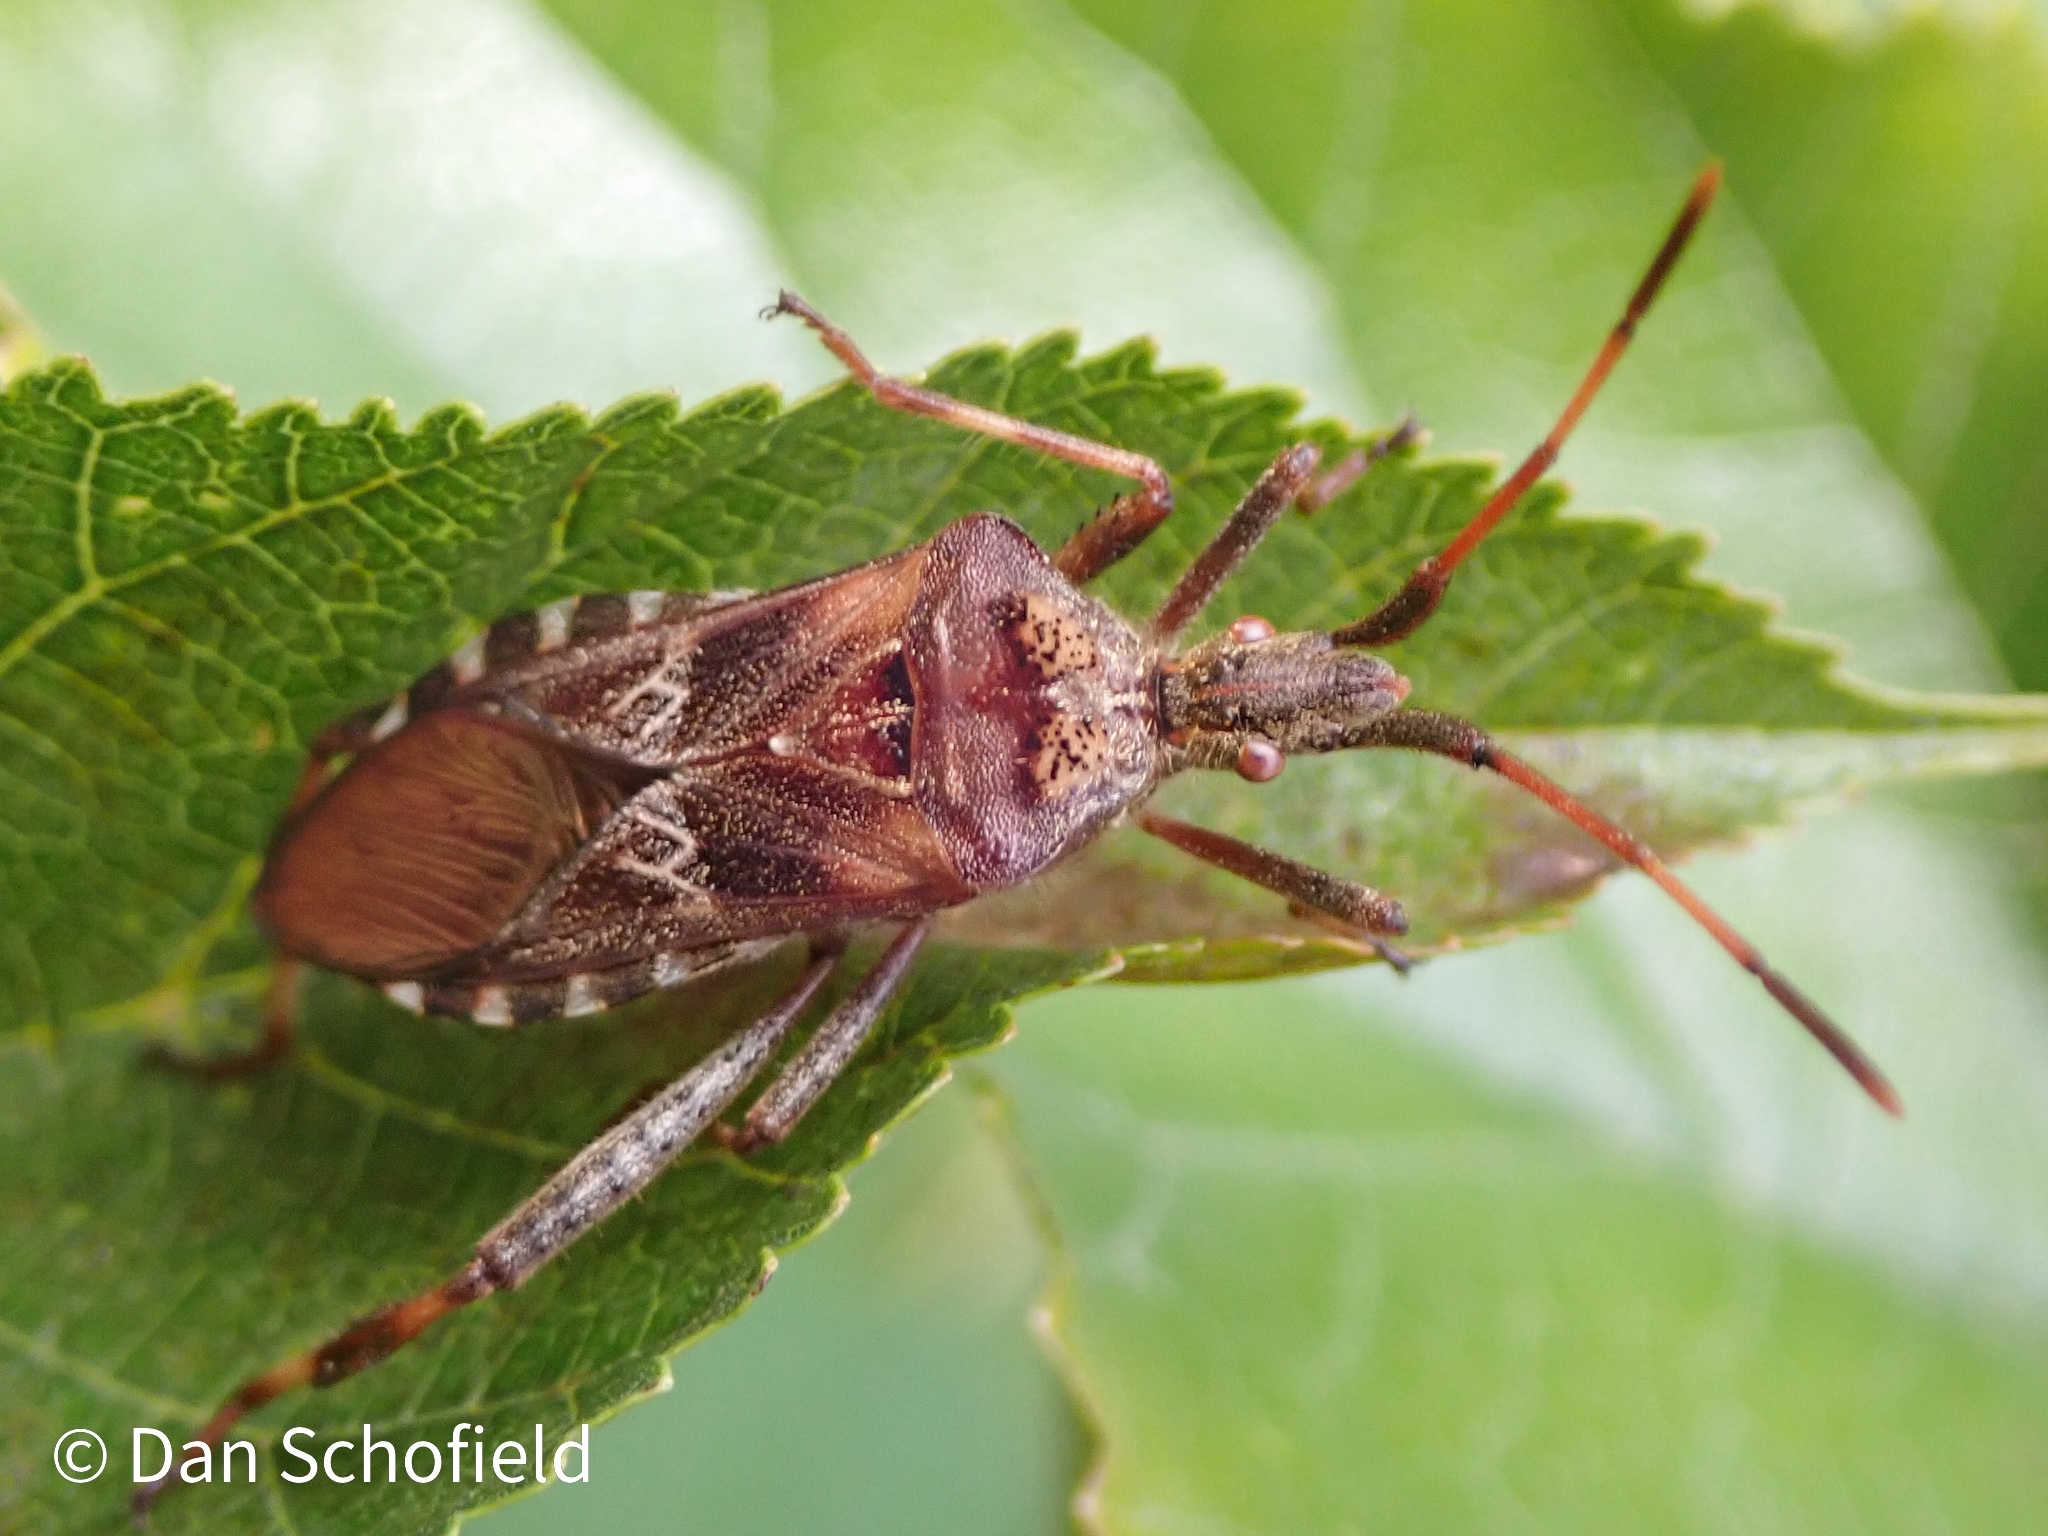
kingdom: Animalia
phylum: Arthropoda
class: Insecta
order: Hemiptera
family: Coreidae
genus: Leptoglossus
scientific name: Leptoglossus occidentalis
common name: Western conifer-seed bug
